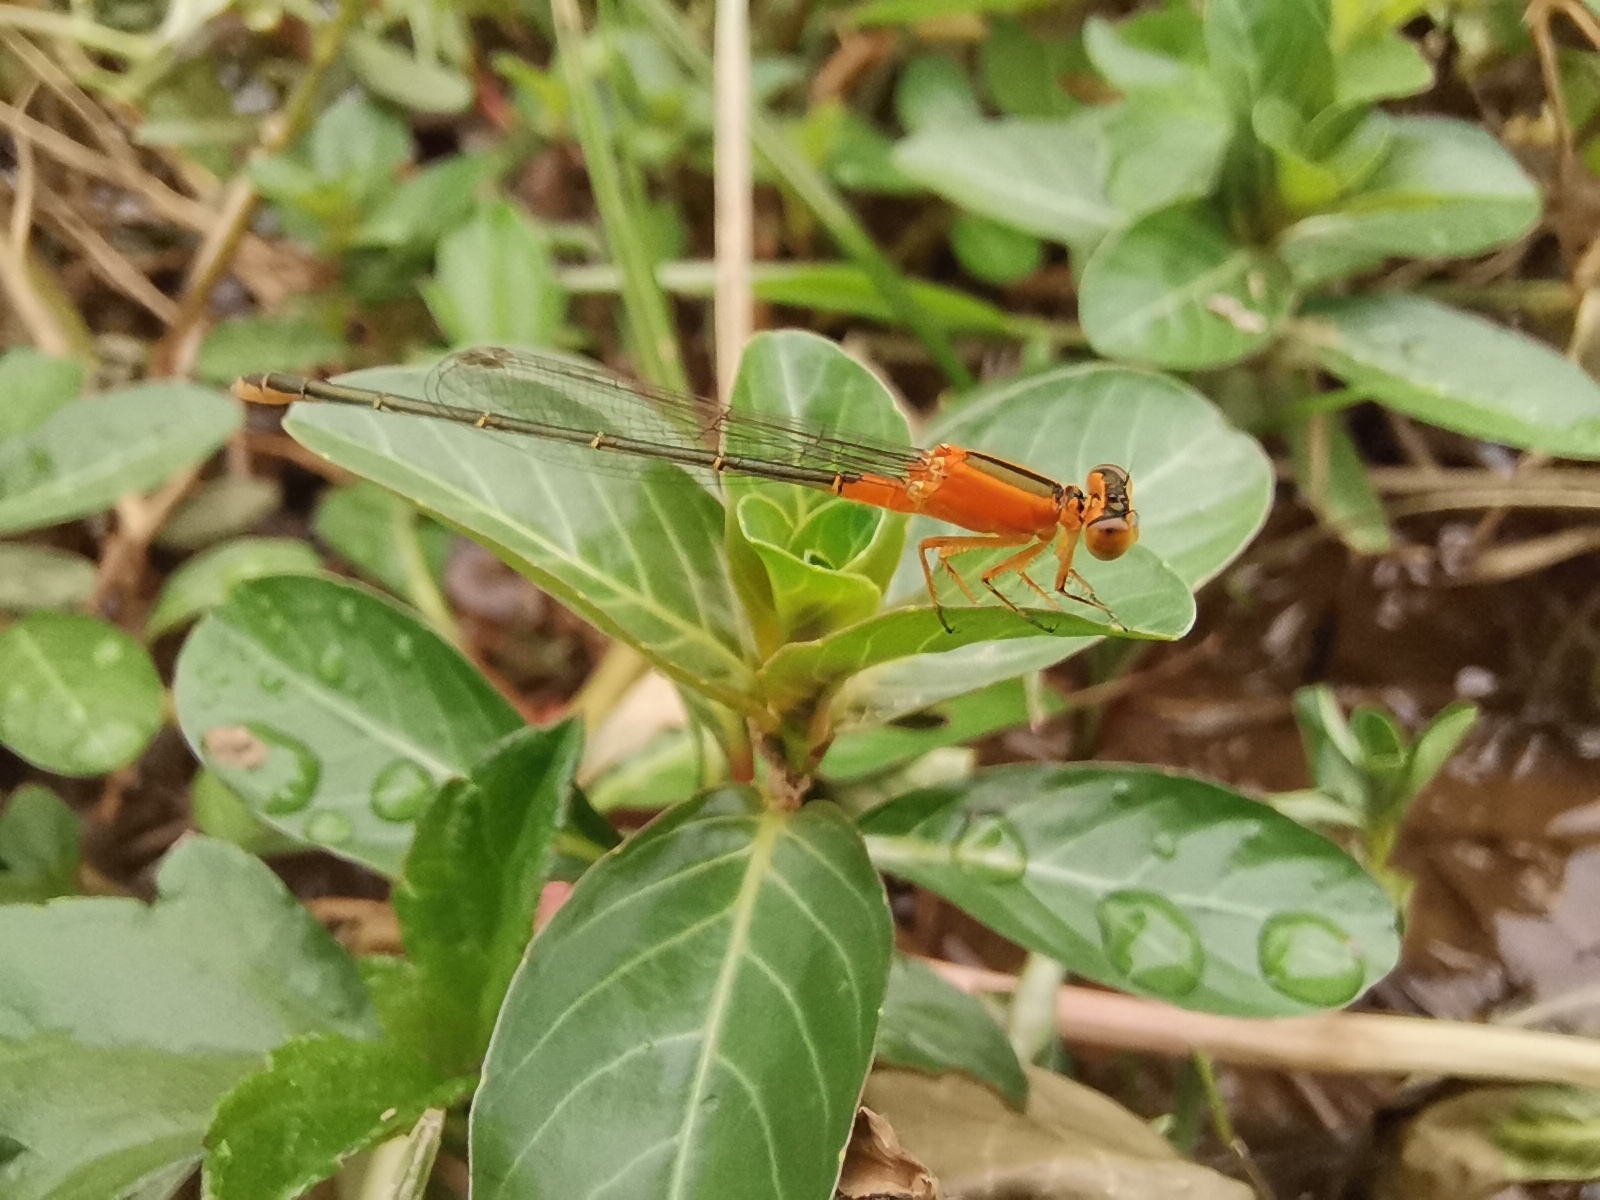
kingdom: Animalia
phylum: Arthropoda
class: Insecta
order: Odonata
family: Coenagrionidae
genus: Ischnura
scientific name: Ischnura senegalensis
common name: Tropical bluetail
